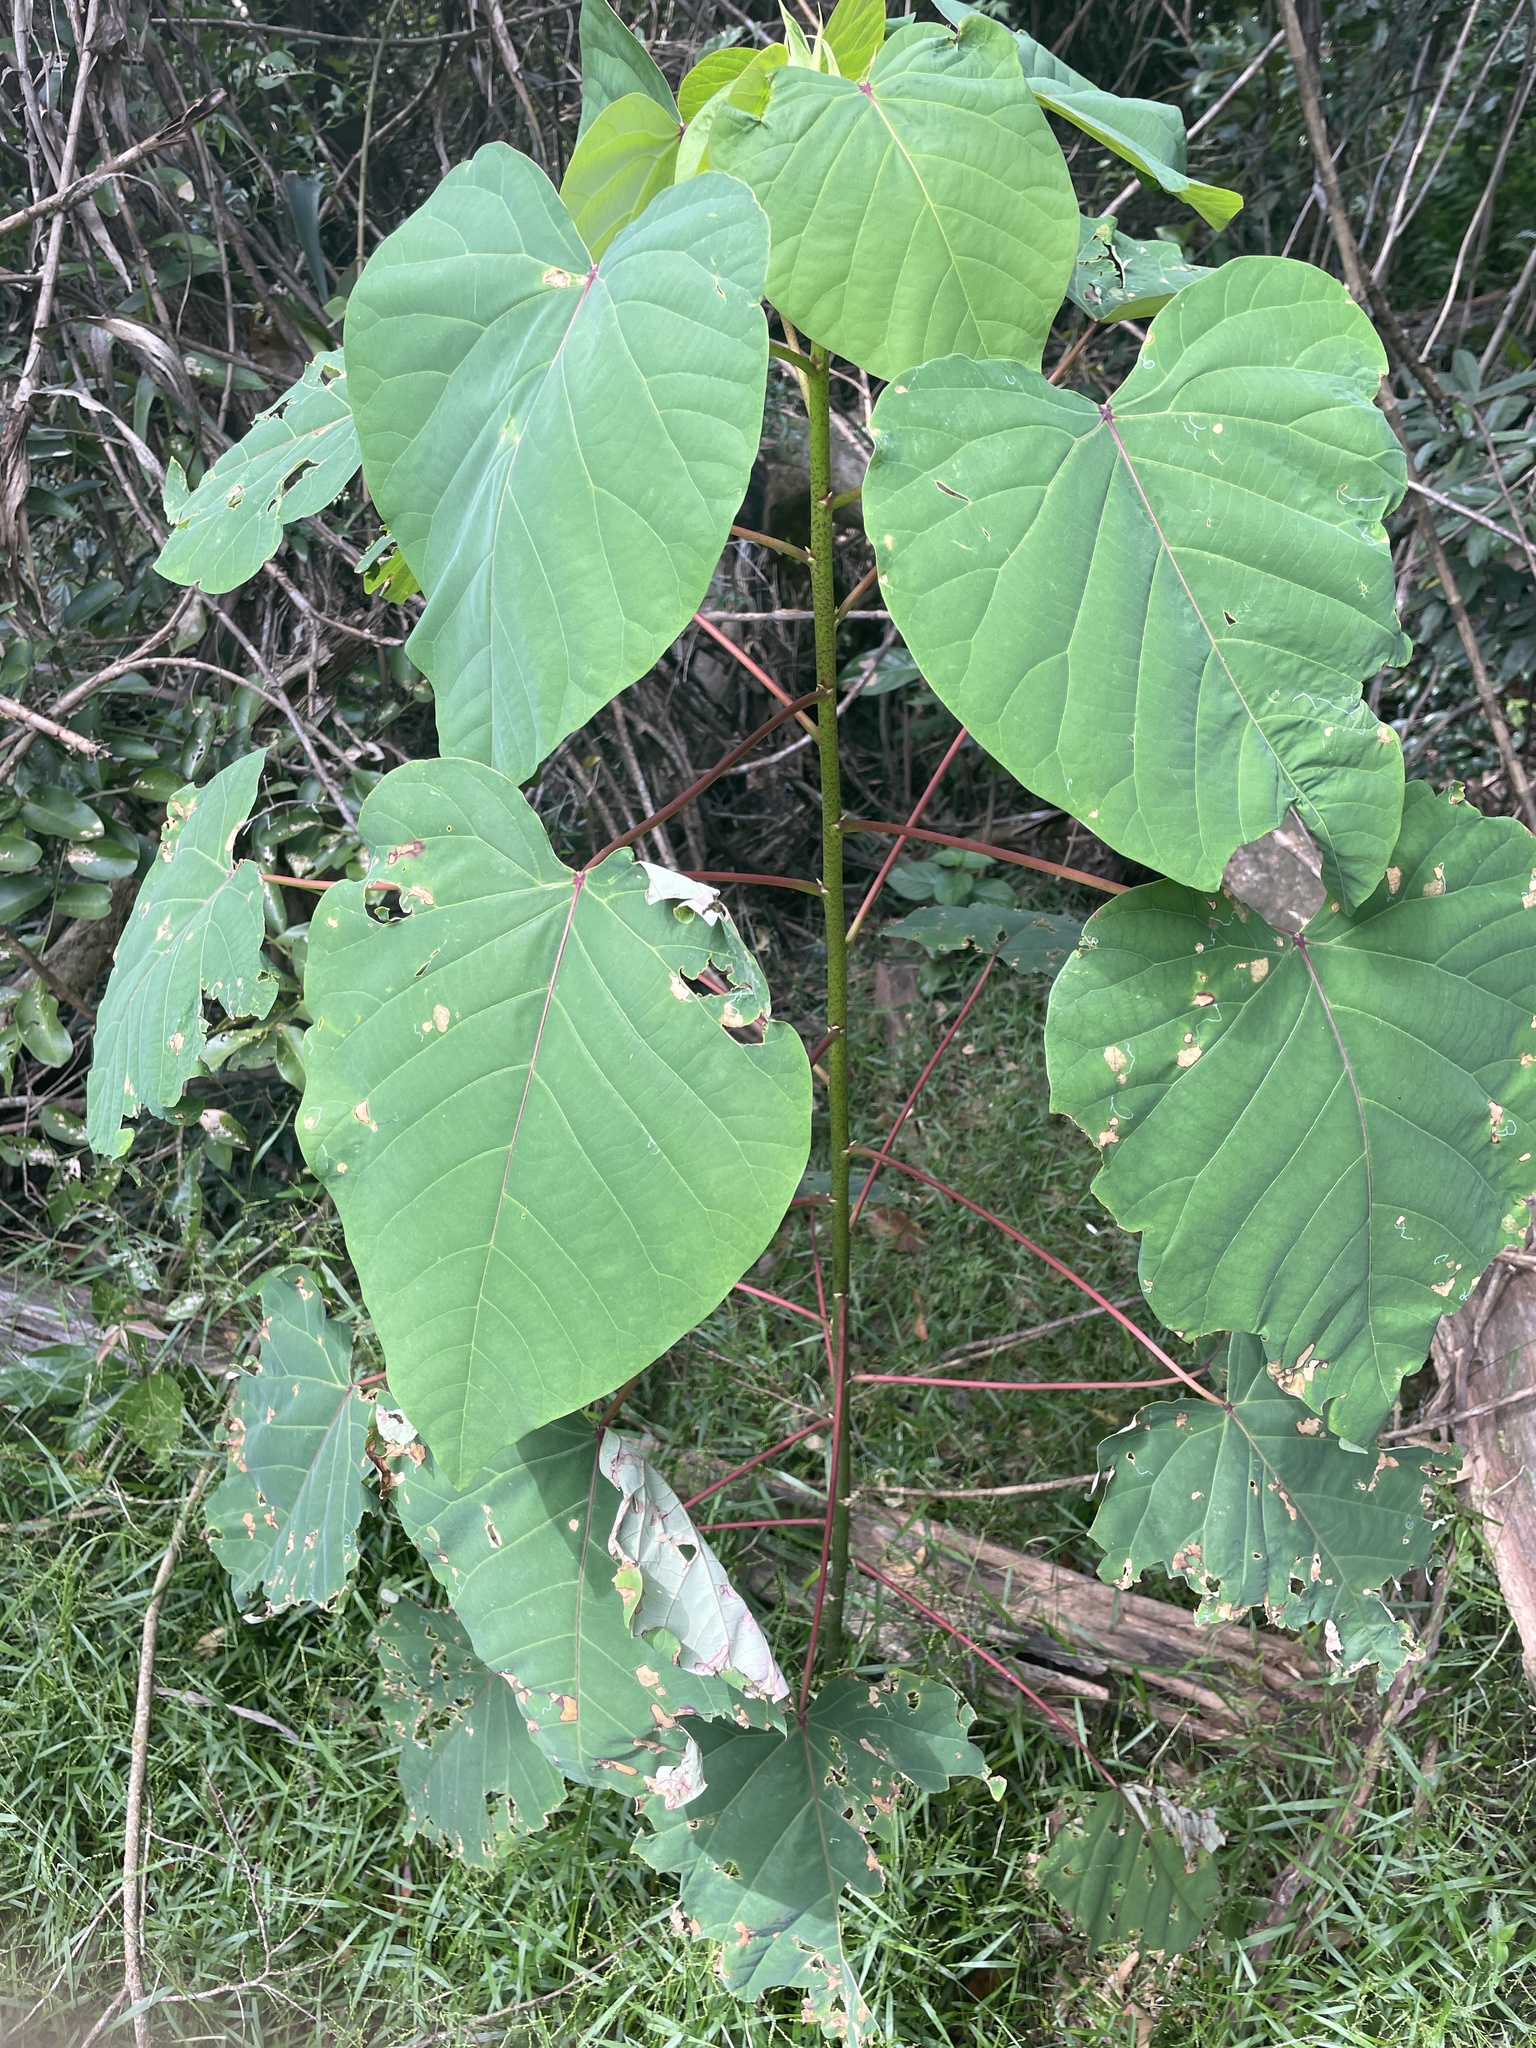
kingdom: Plantae
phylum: Tracheophyta
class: Magnoliopsida
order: Malpighiales
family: Euphorbiaceae
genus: Homalanthus
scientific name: Homalanthus populifolius
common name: Queensland poplar
